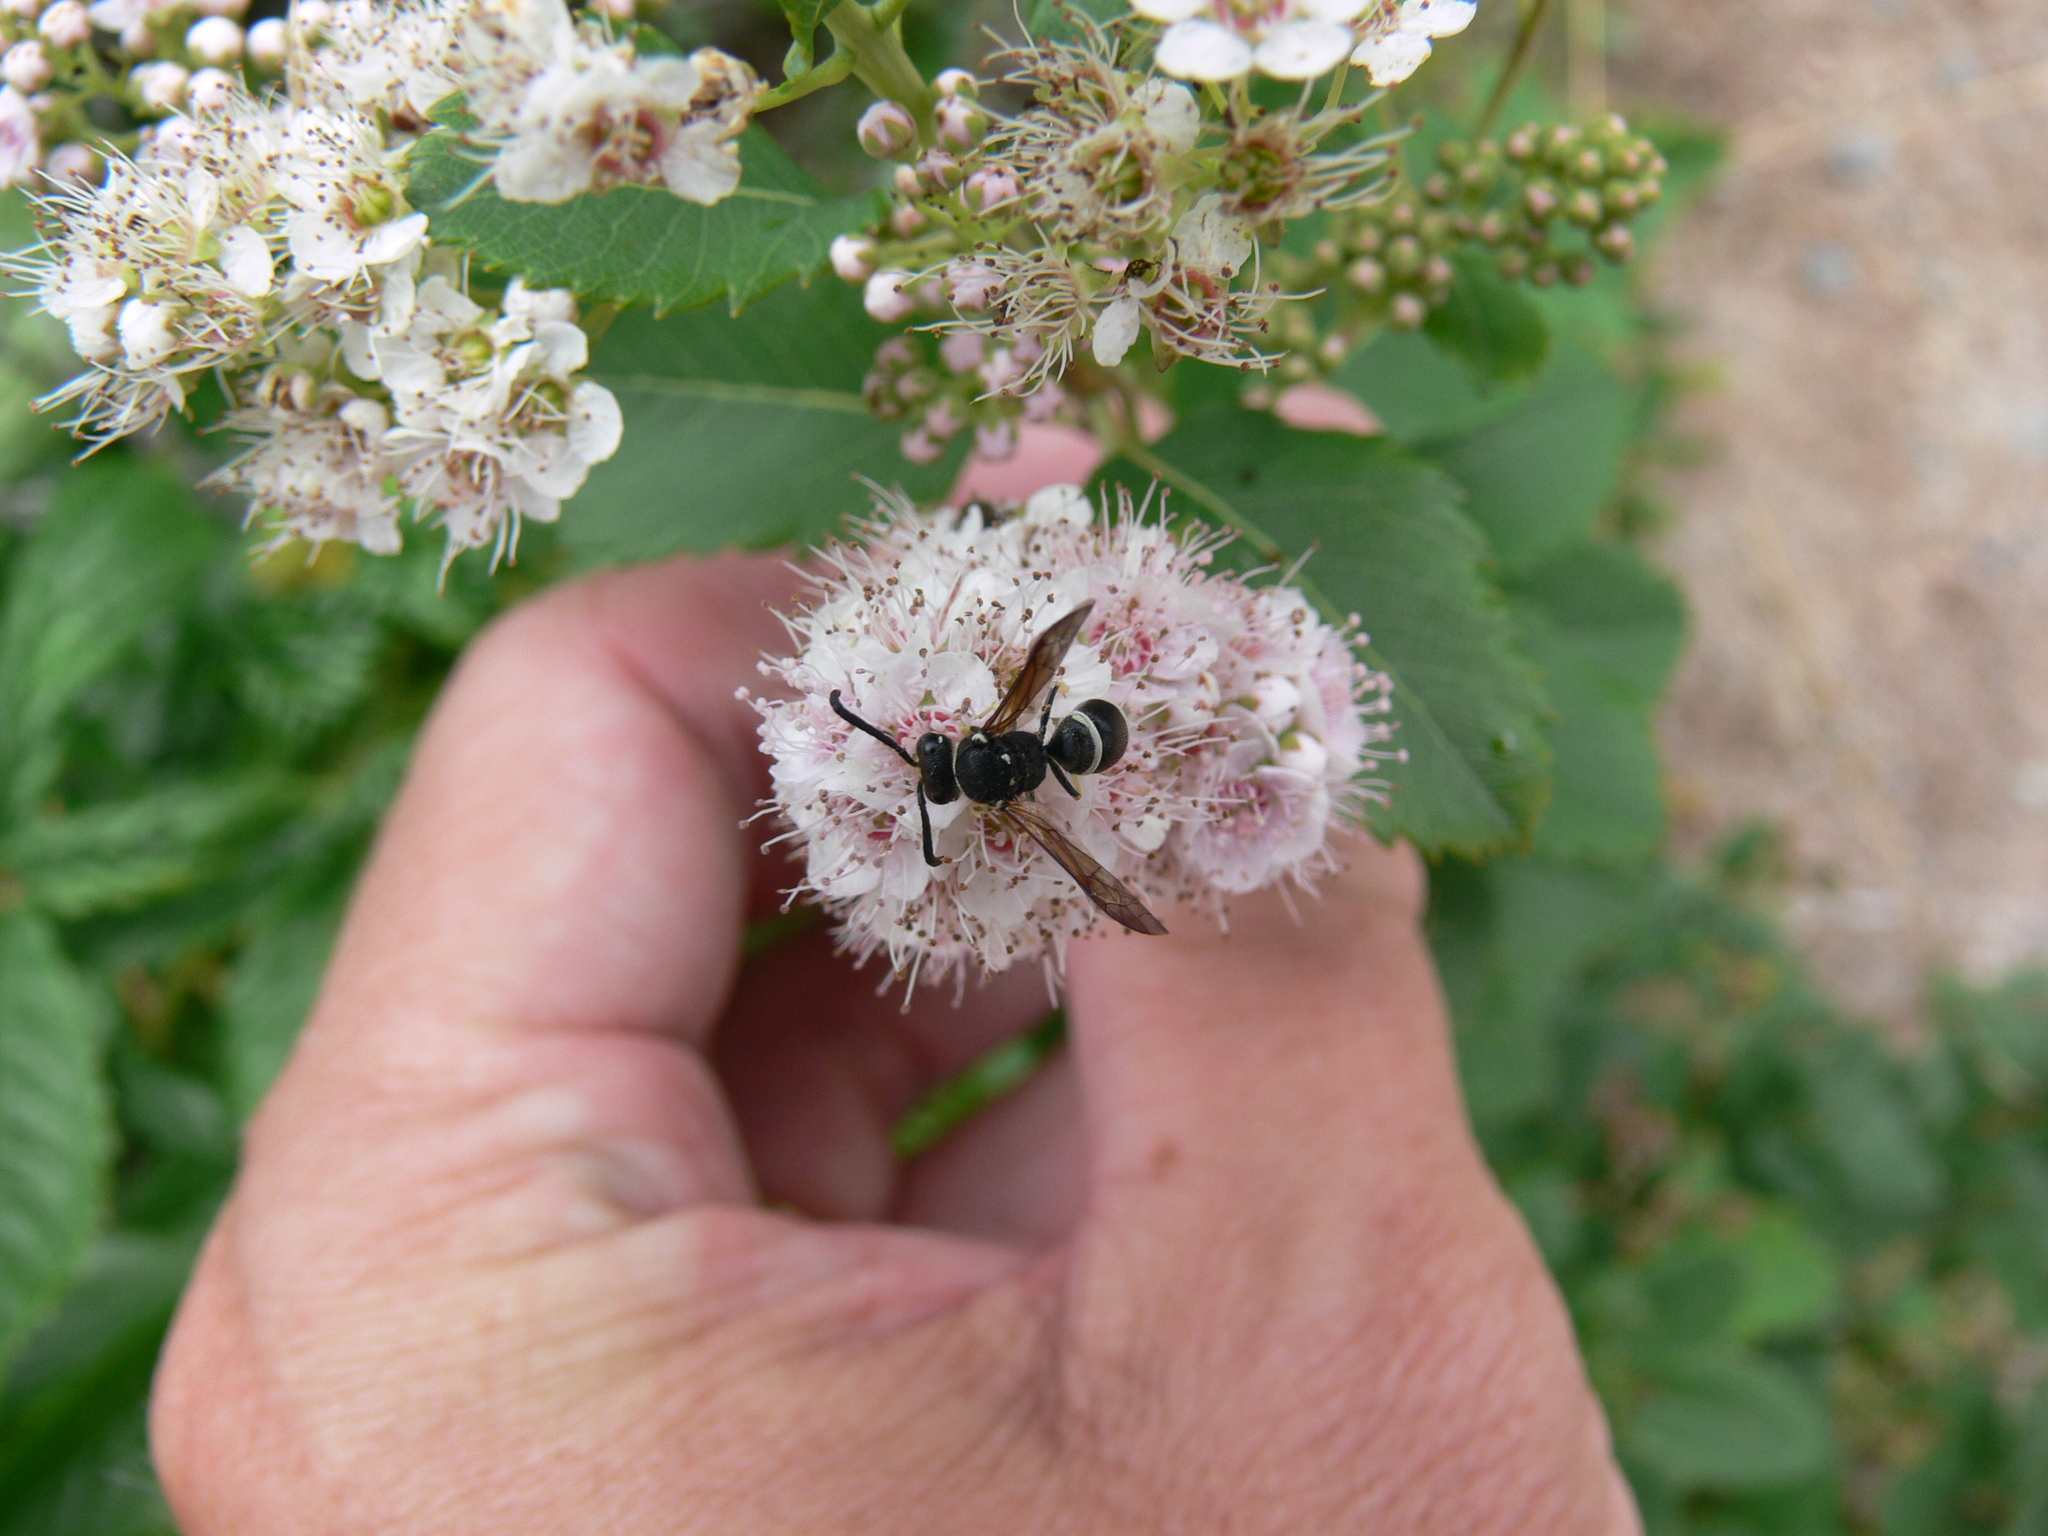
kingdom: Animalia
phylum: Arthropoda
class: Insecta
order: Hymenoptera
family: Vespidae
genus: Ancistrocerus
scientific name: Ancistrocerus
